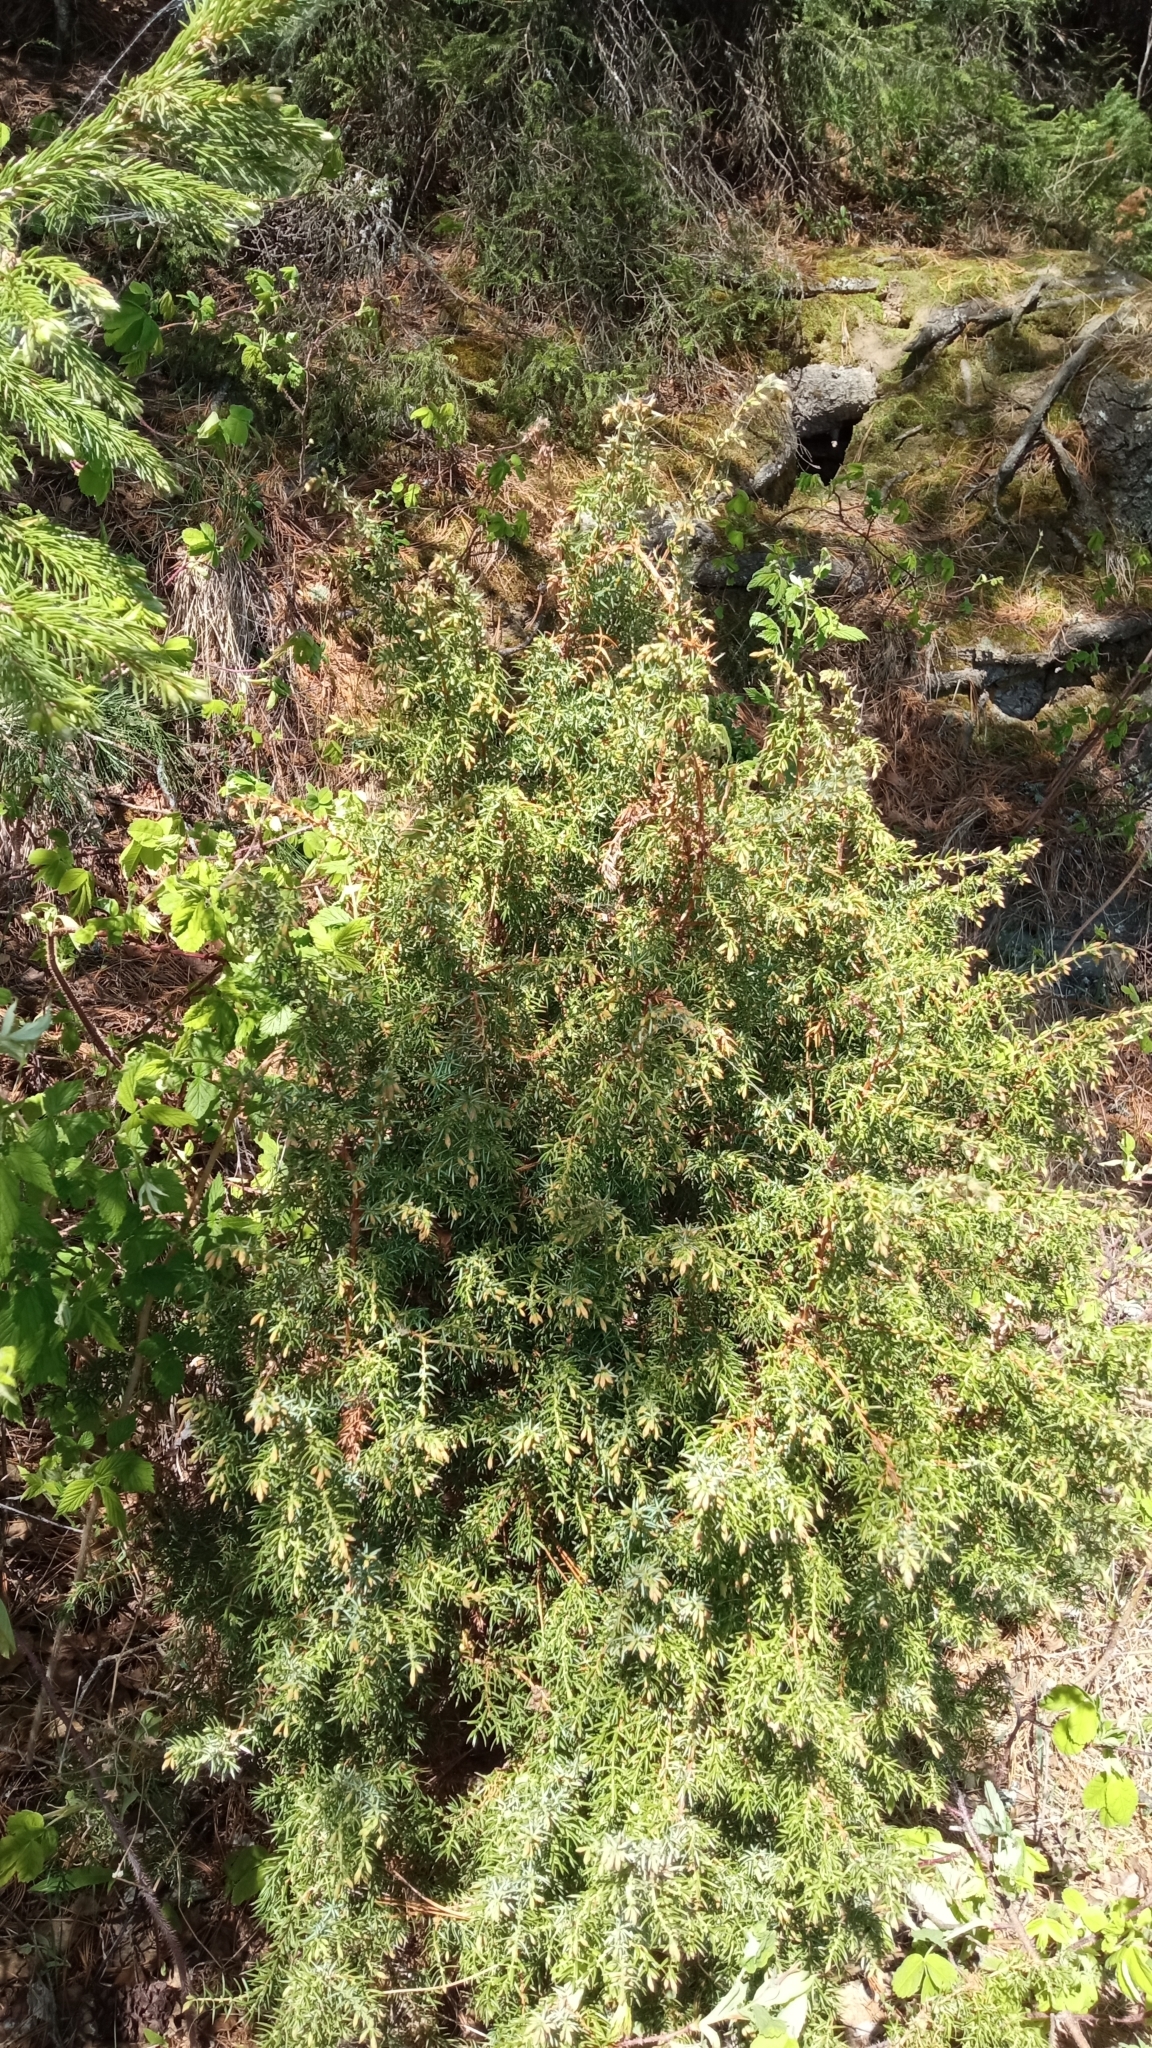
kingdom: Plantae
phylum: Tracheophyta
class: Pinopsida
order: Pinales
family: Cupressaceae
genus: Juniperus
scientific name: Juniperus communis
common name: Common juniper
